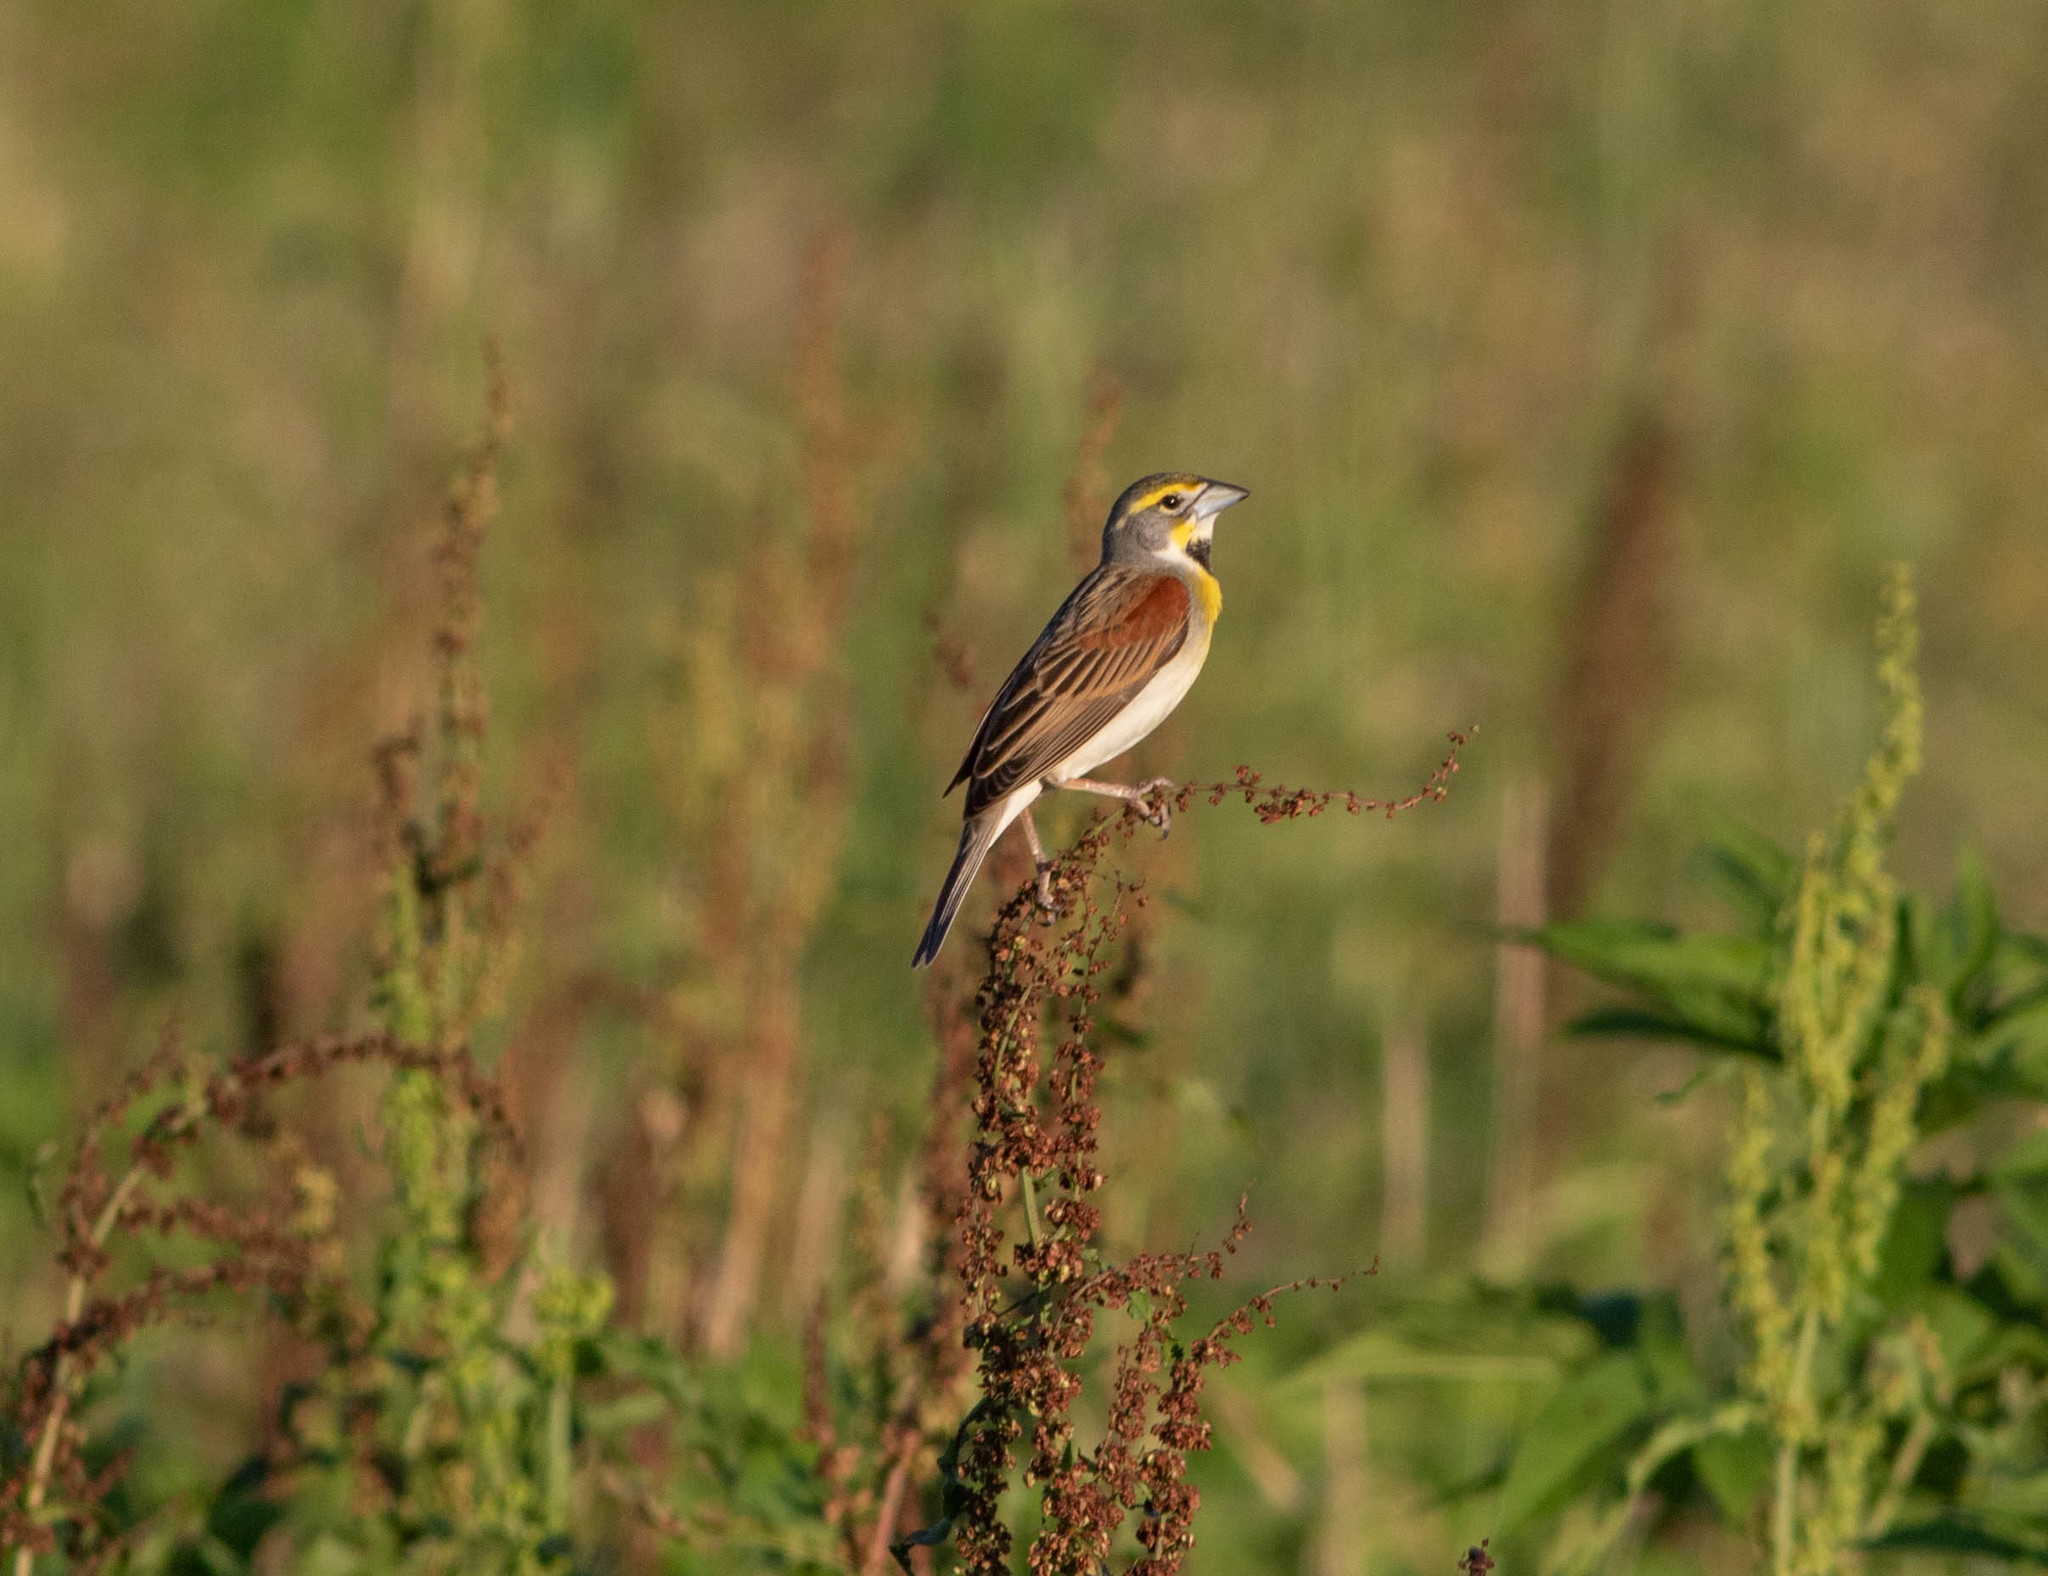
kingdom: Animalia
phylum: Chordata
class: Aves
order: Passeriformes
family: Cardinalidae
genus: Spiza
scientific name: Spiza americana
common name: Dickcissel
